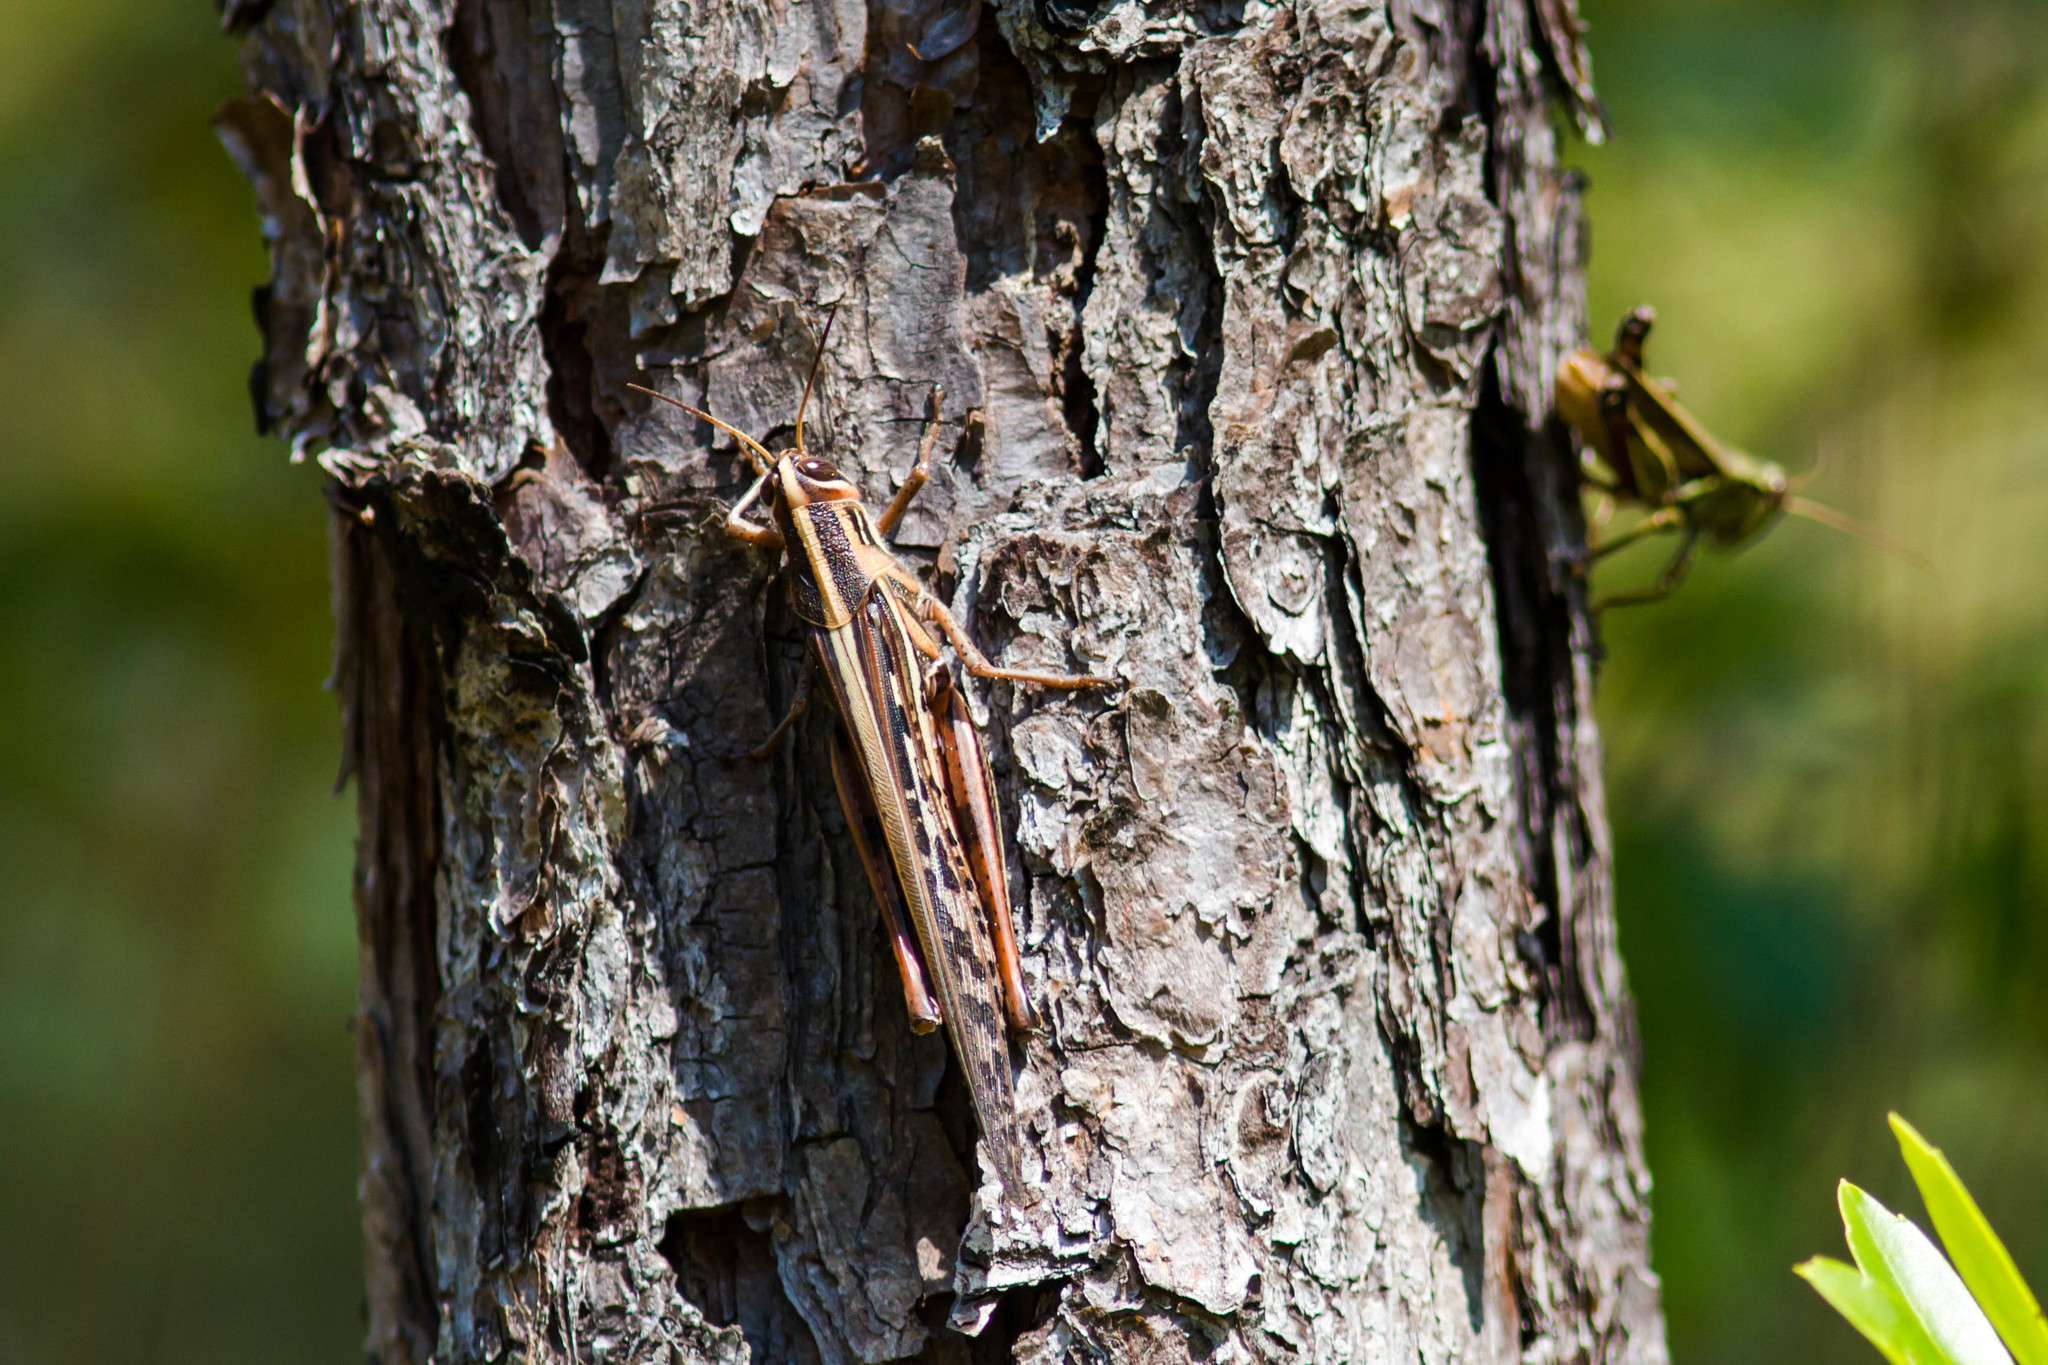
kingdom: Animalia
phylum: Arthropoda
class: Insecta
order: Orthoptera
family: Acrididae
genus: Schistocerca
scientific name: Schistocerca americana
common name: American bird locust
